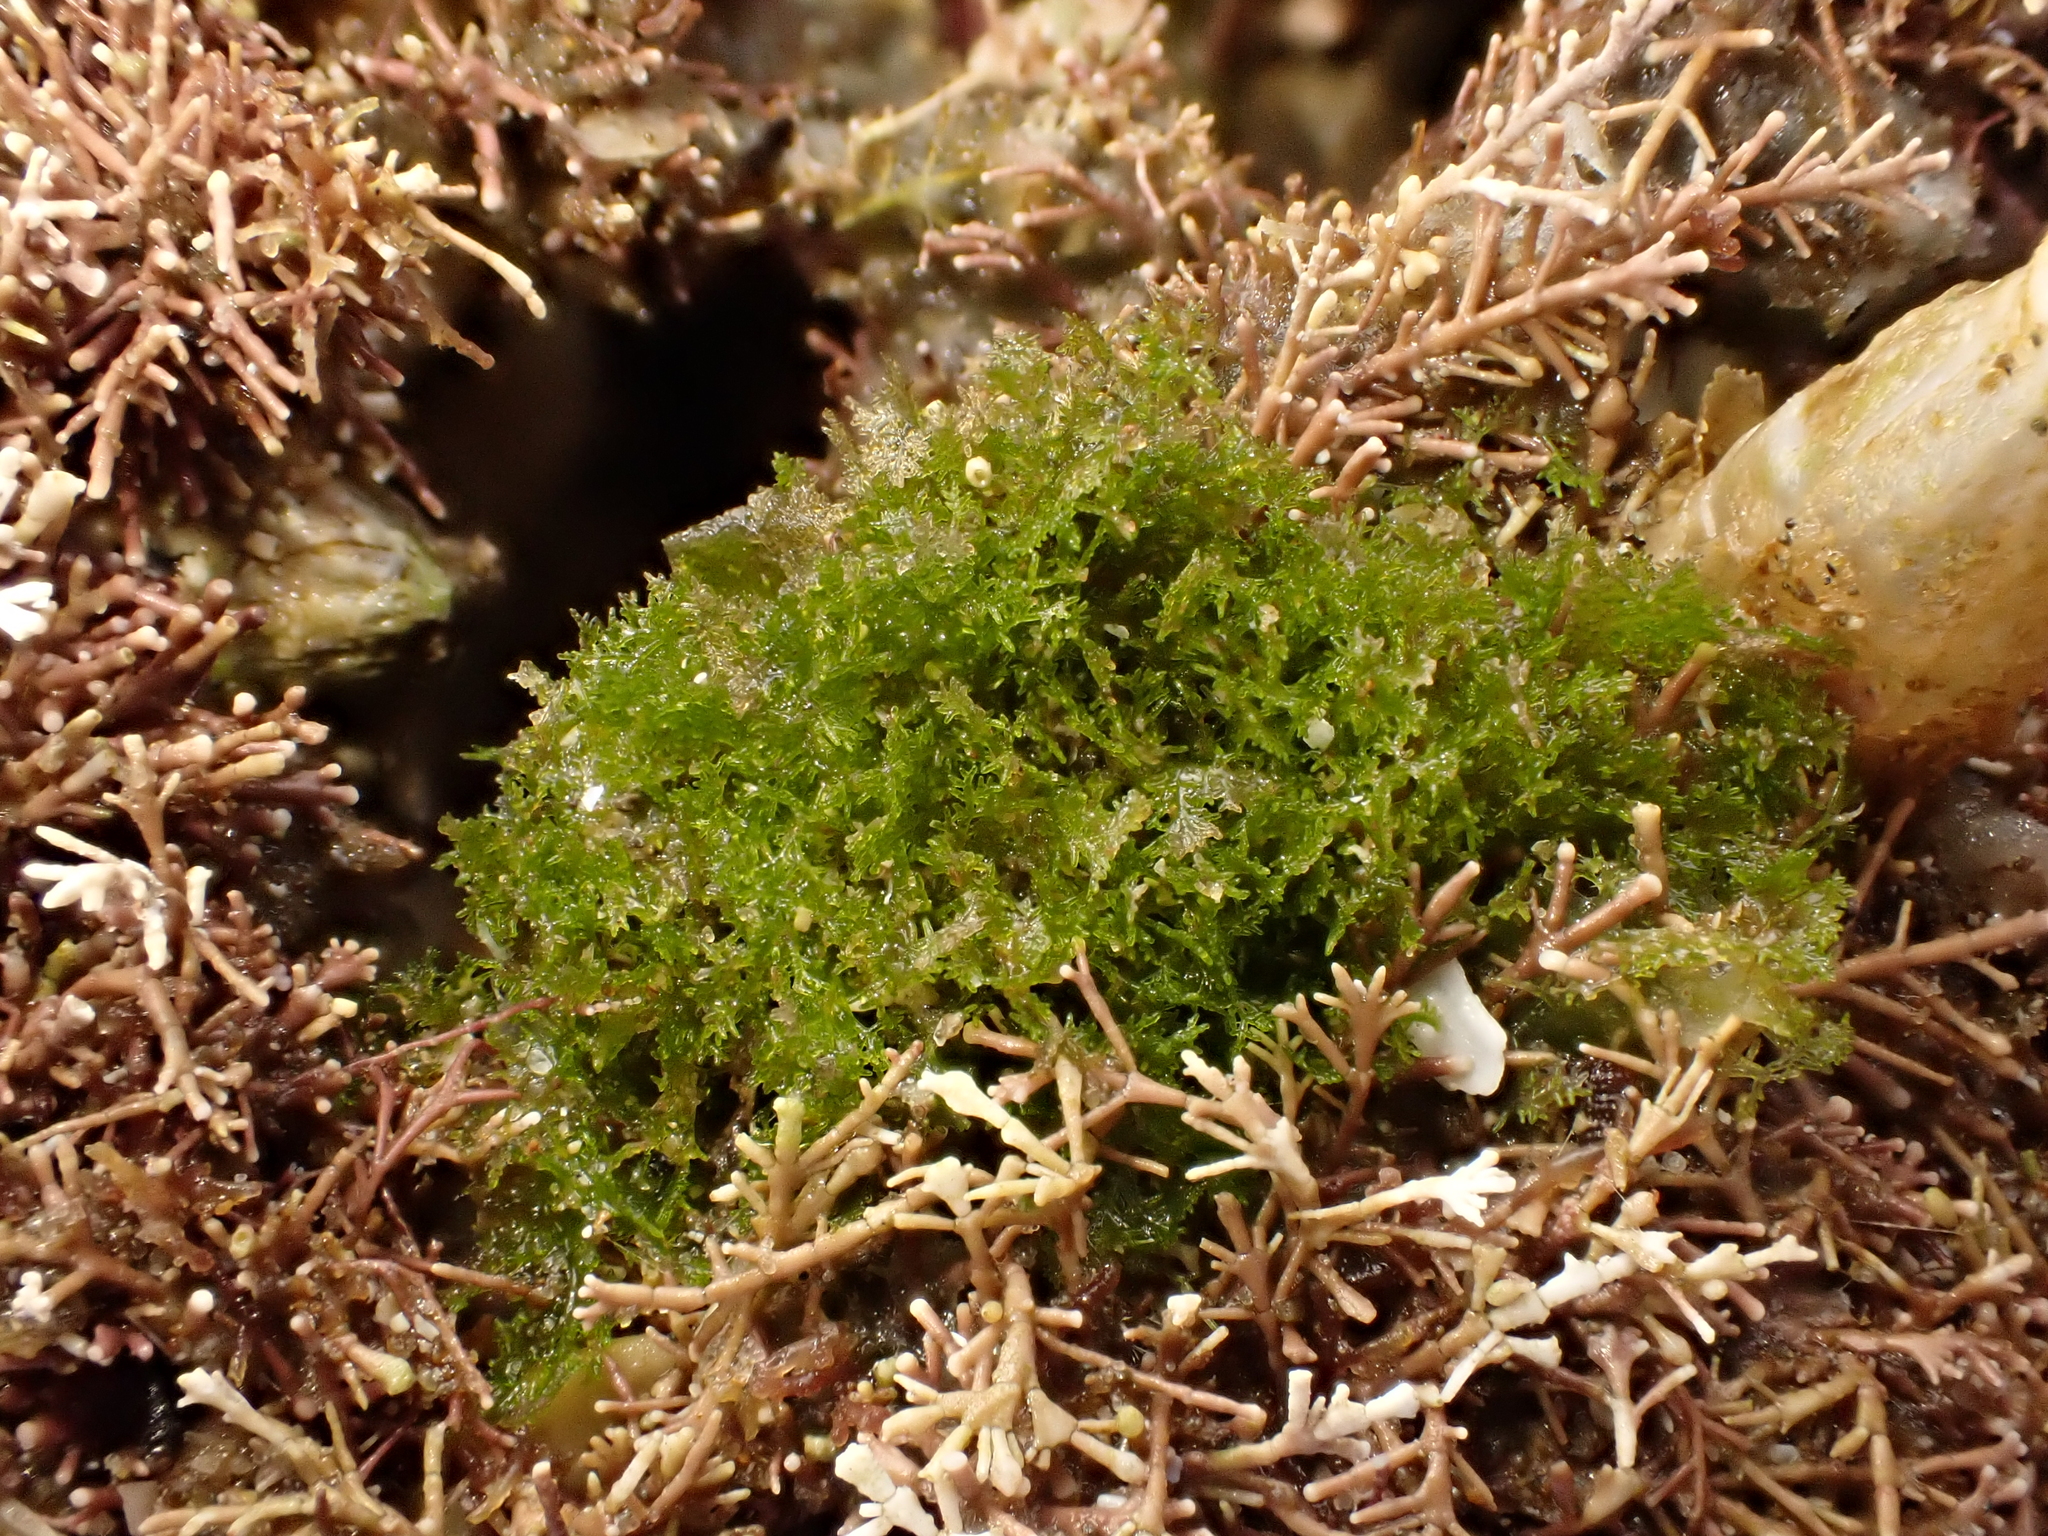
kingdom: Plantae
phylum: Chlorophyta
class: Ulvophyceae
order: Cladophorales
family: Anadyomenaceae
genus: Microdictyon
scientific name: Microdictyon mutabile
